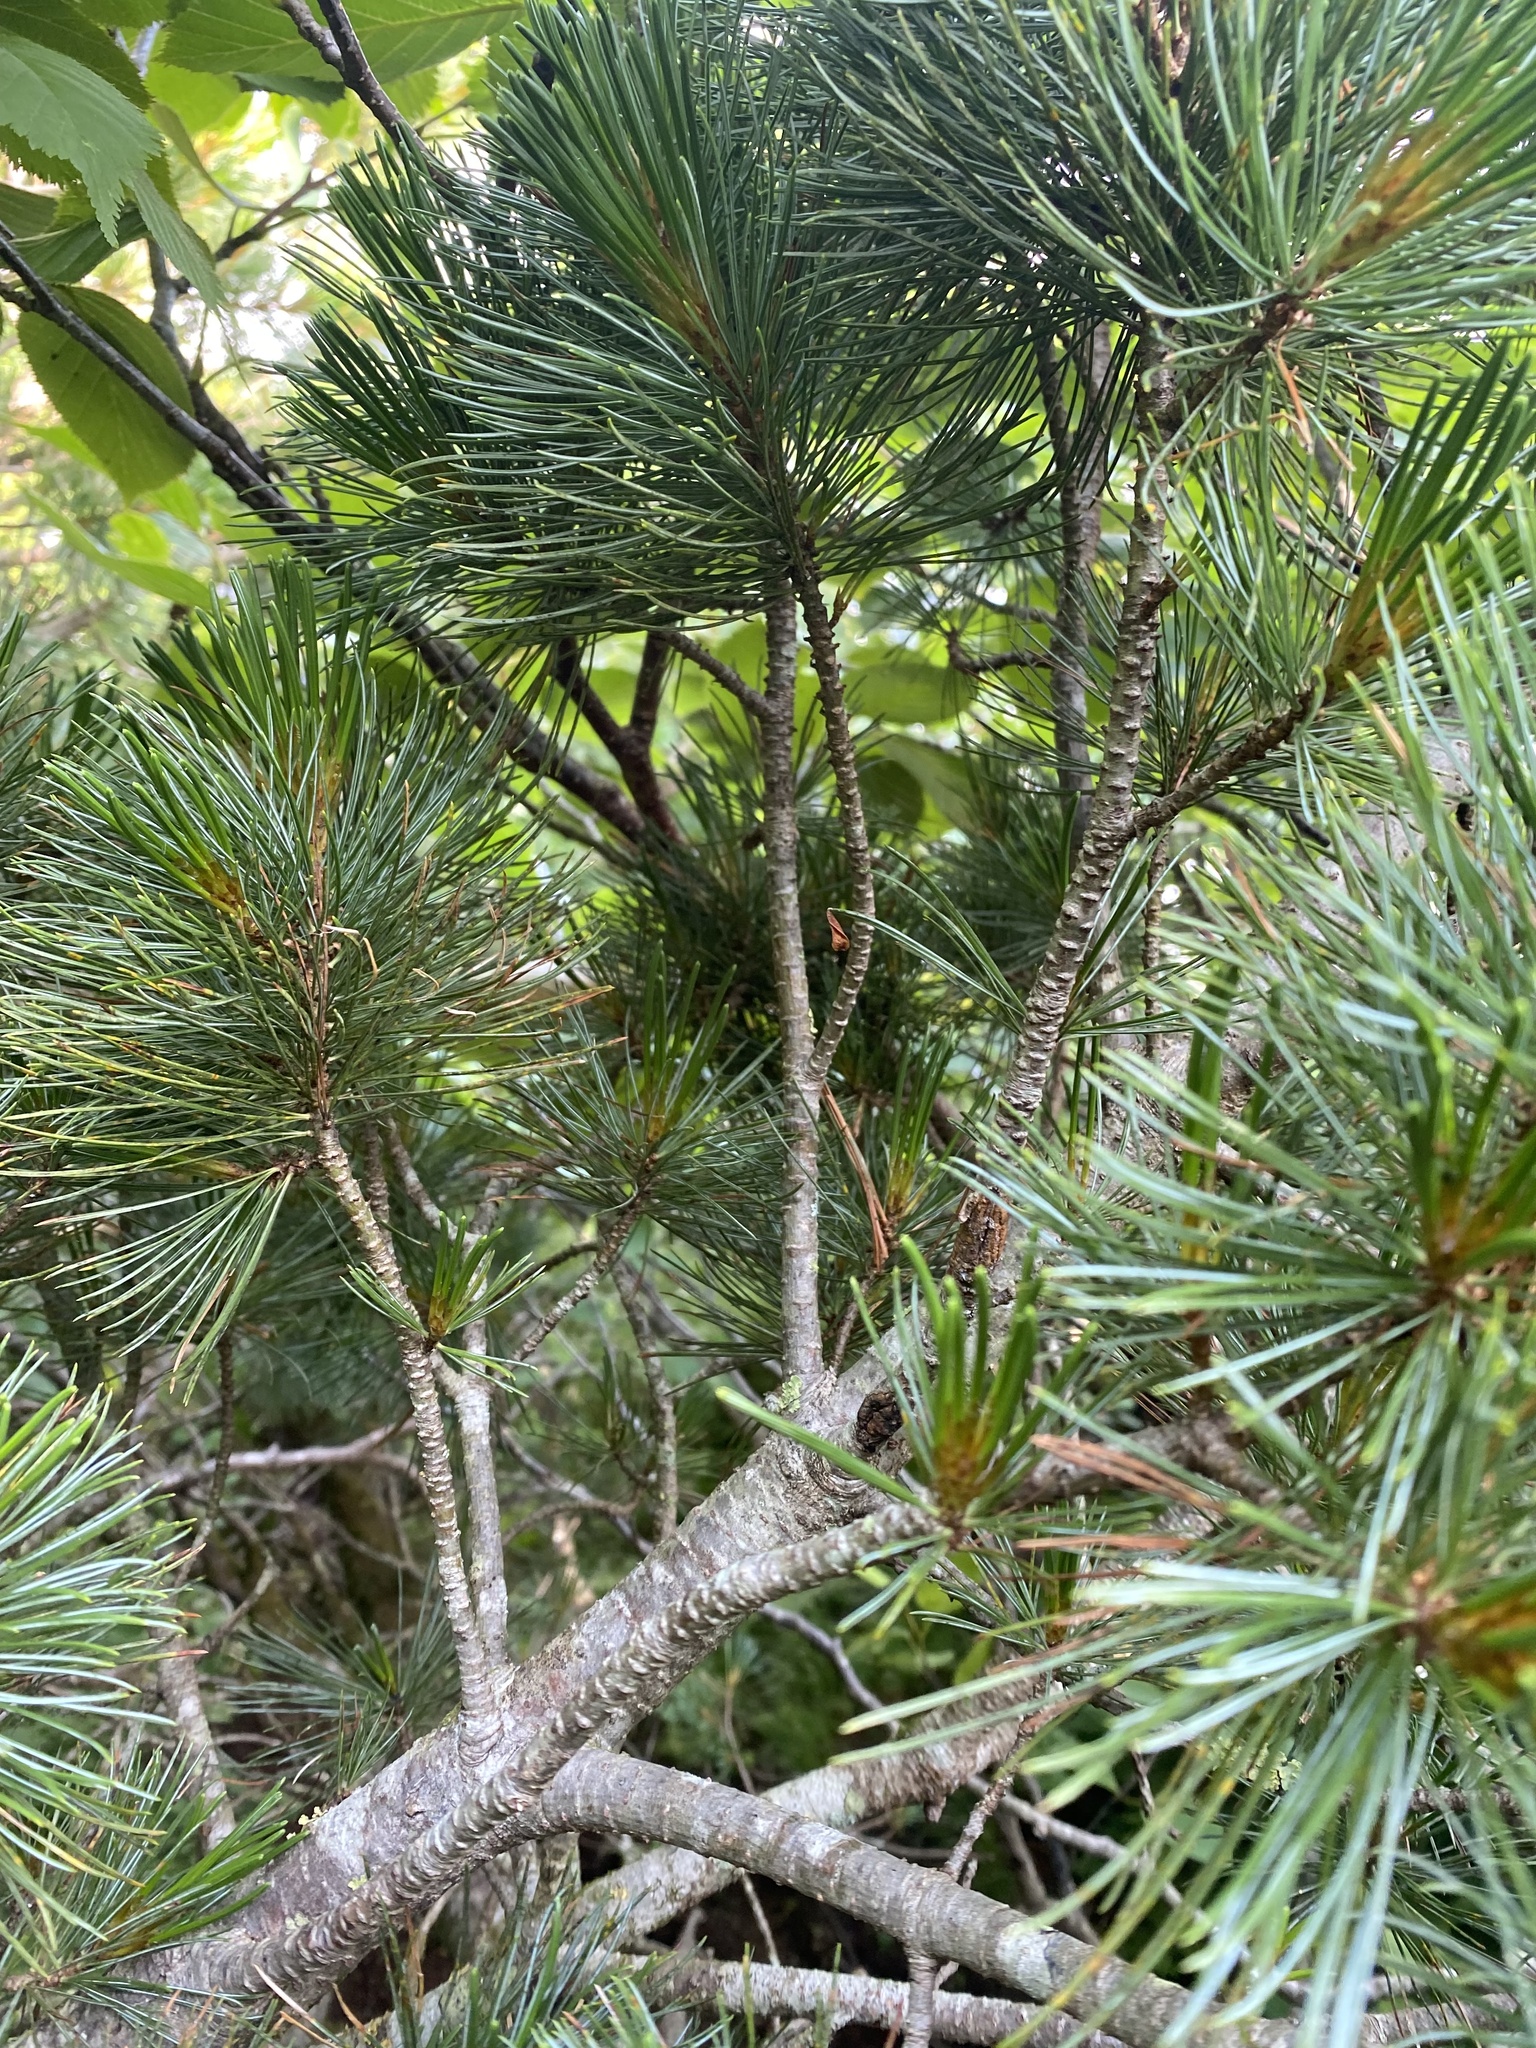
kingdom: Plantae
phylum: Tracheophyta
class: Pinopsida
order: Pinales
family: Pinaceae
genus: Pinus
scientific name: Pinus pumila
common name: Dwarf siberian pine
